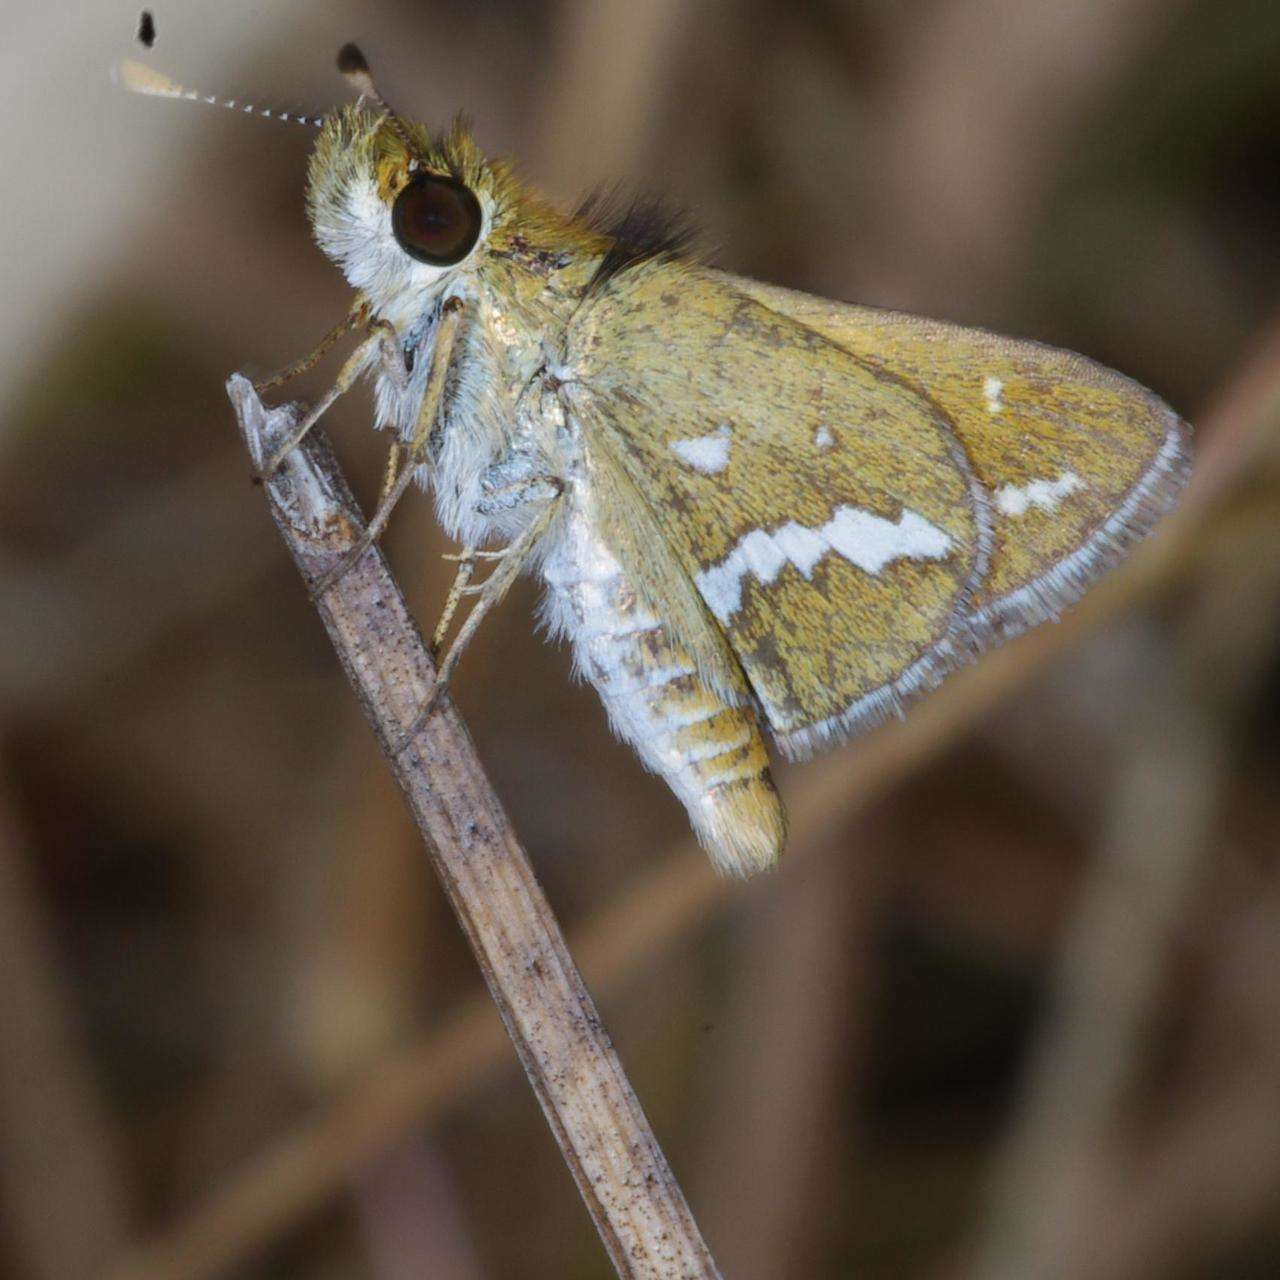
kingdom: Animalia
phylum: Arthropoda
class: Insecta
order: Lepidoptera
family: Hesperiidae
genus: Taractrocera
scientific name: Taractrocera papyria
